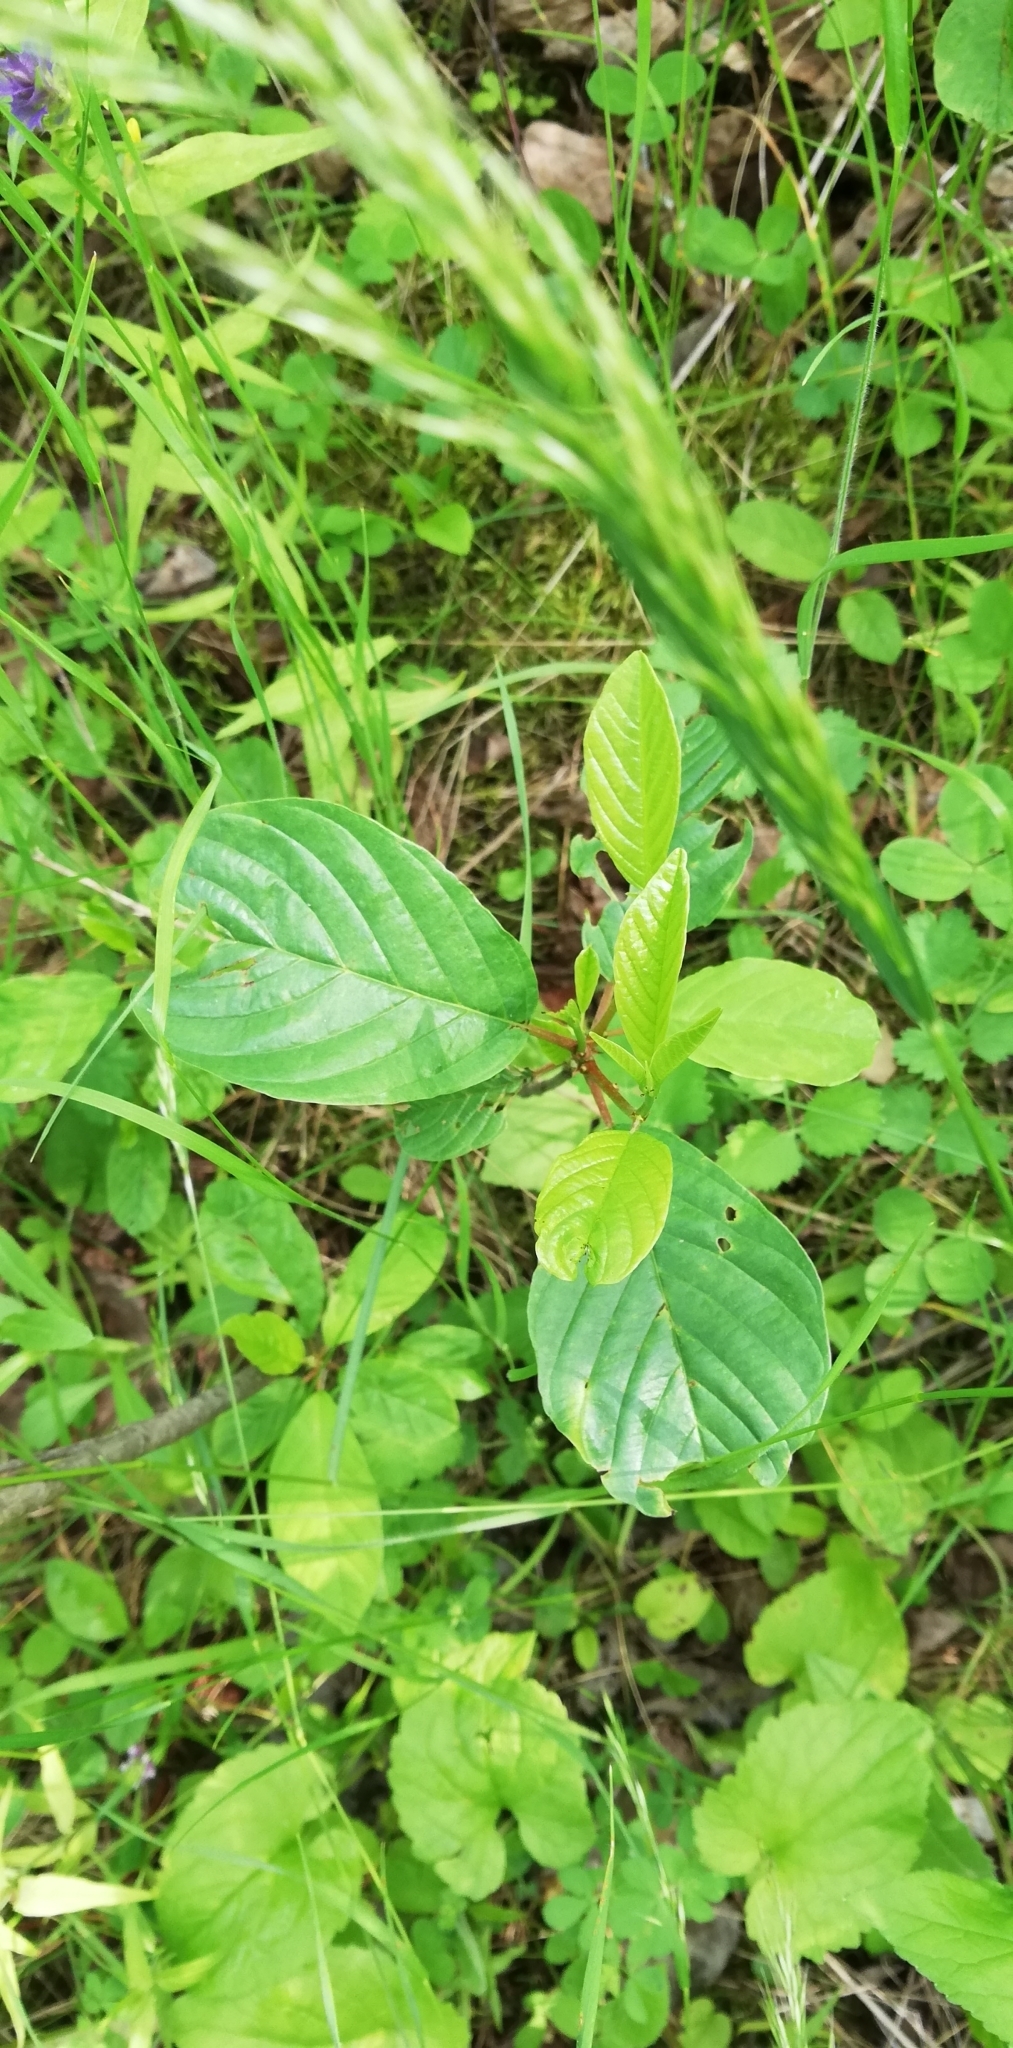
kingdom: Plantae
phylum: Tracheophyta
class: Magnoliopsida
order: Rosales
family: Rhamnaceae
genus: Frangula
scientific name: Frangula alnus
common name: Alder buckthorn
